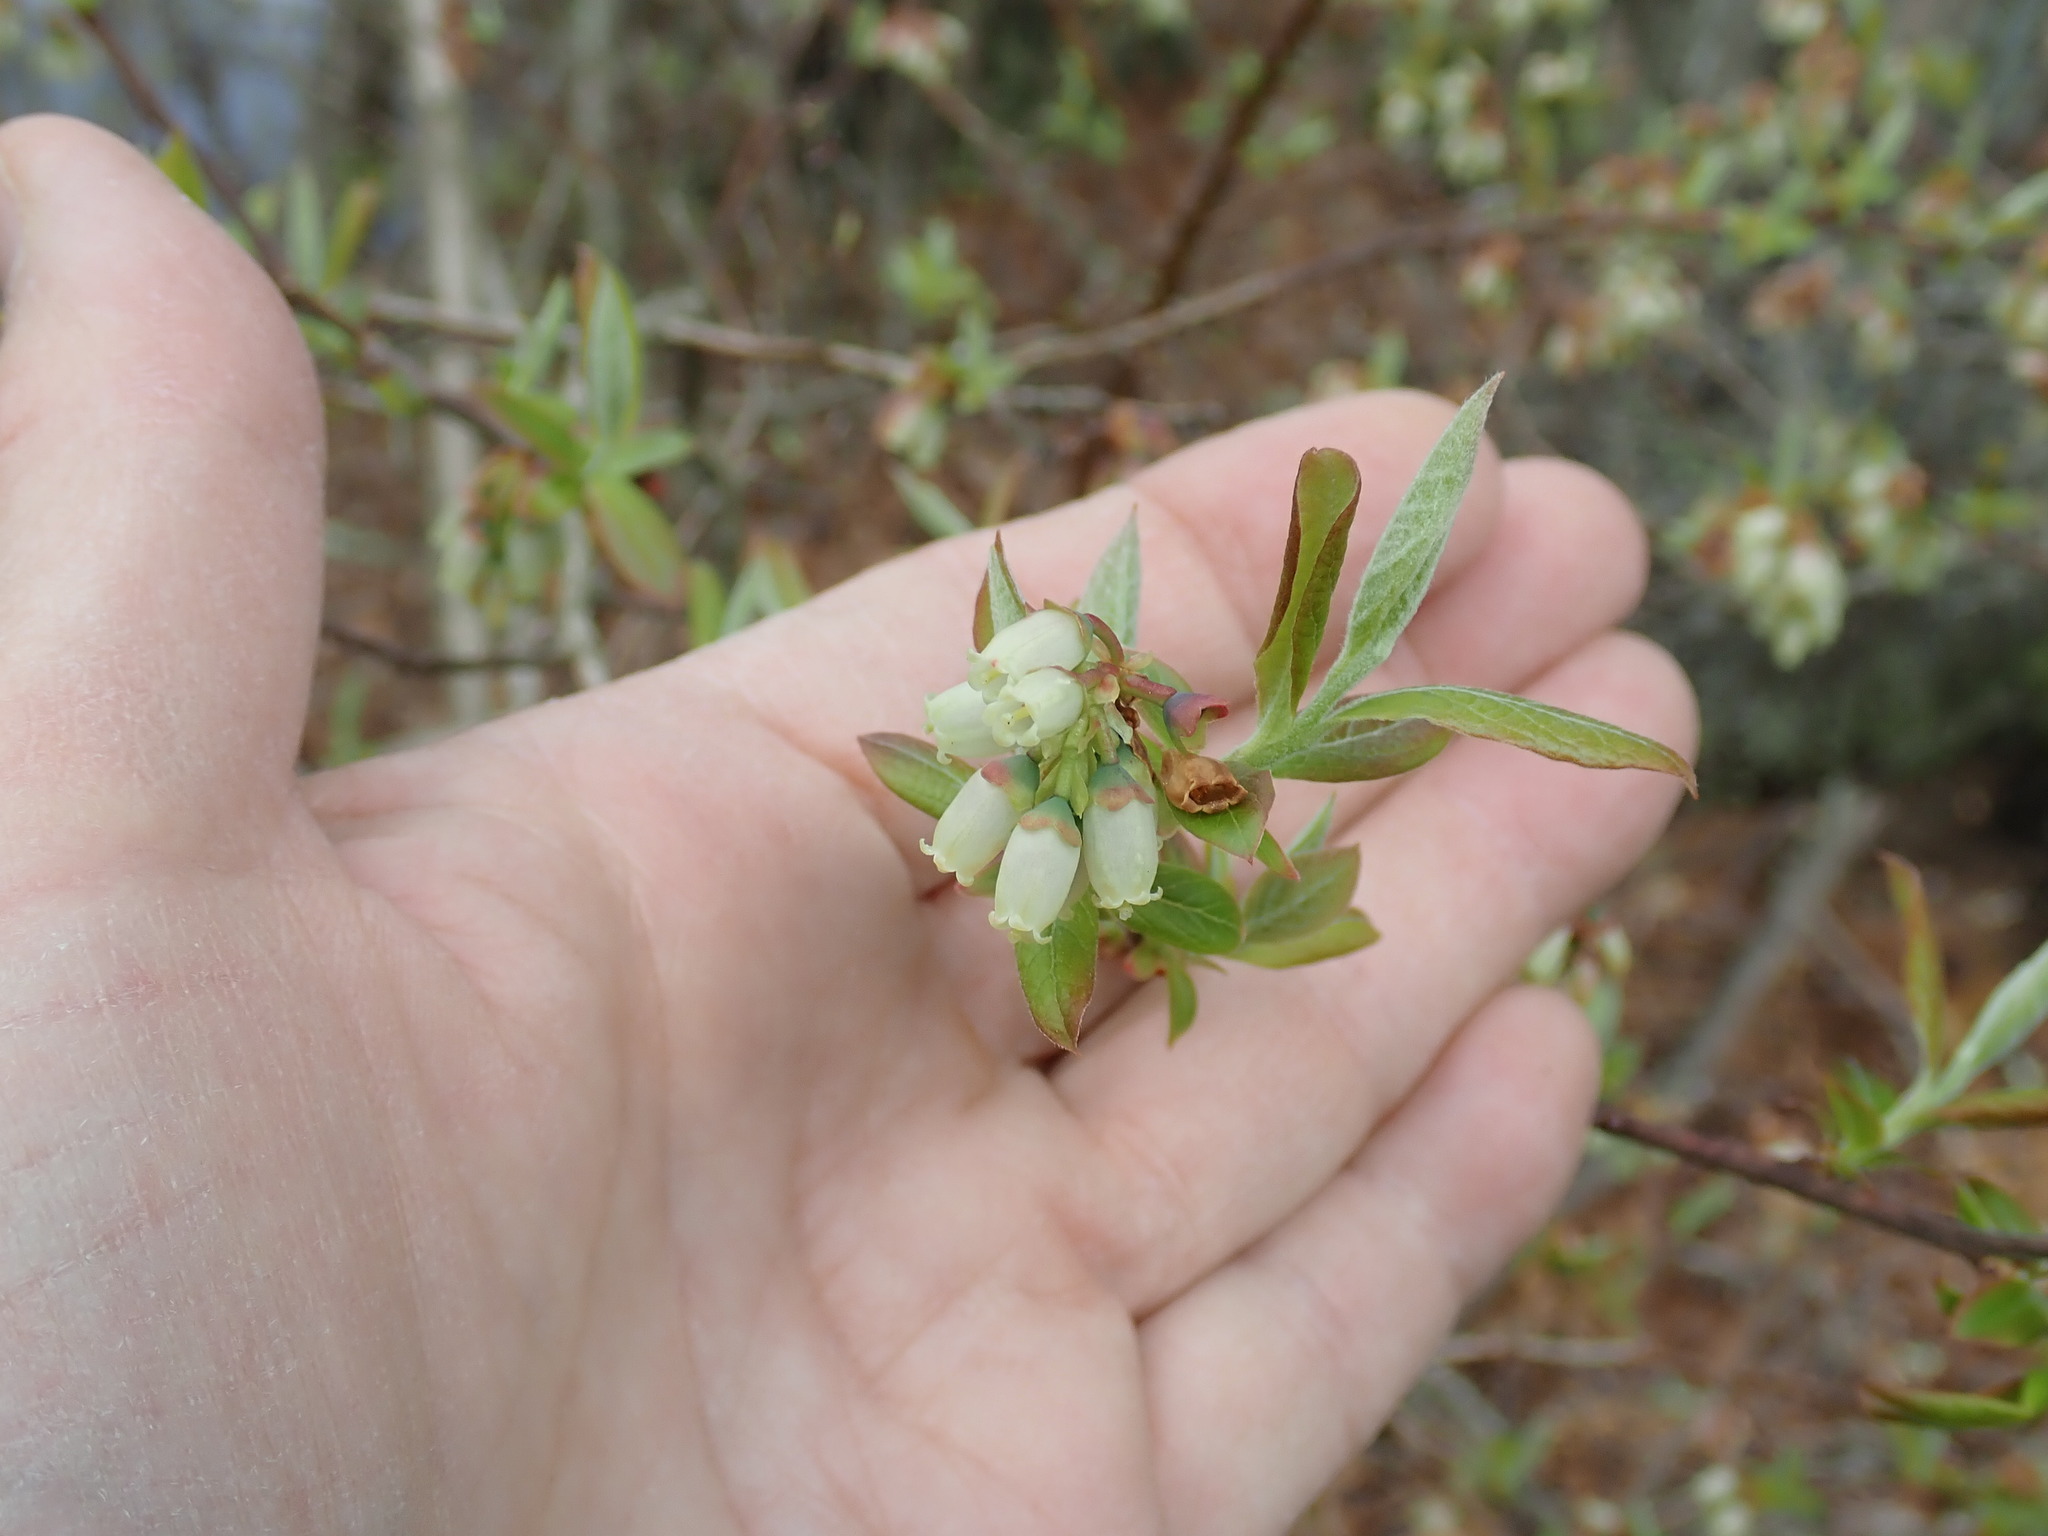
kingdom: Plantae
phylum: Tracheophyta
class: Magnoliopsida
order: Ericales
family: Ericaceae
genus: Vaccinium
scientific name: Vaccinium corymbosum
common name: Blueberry
